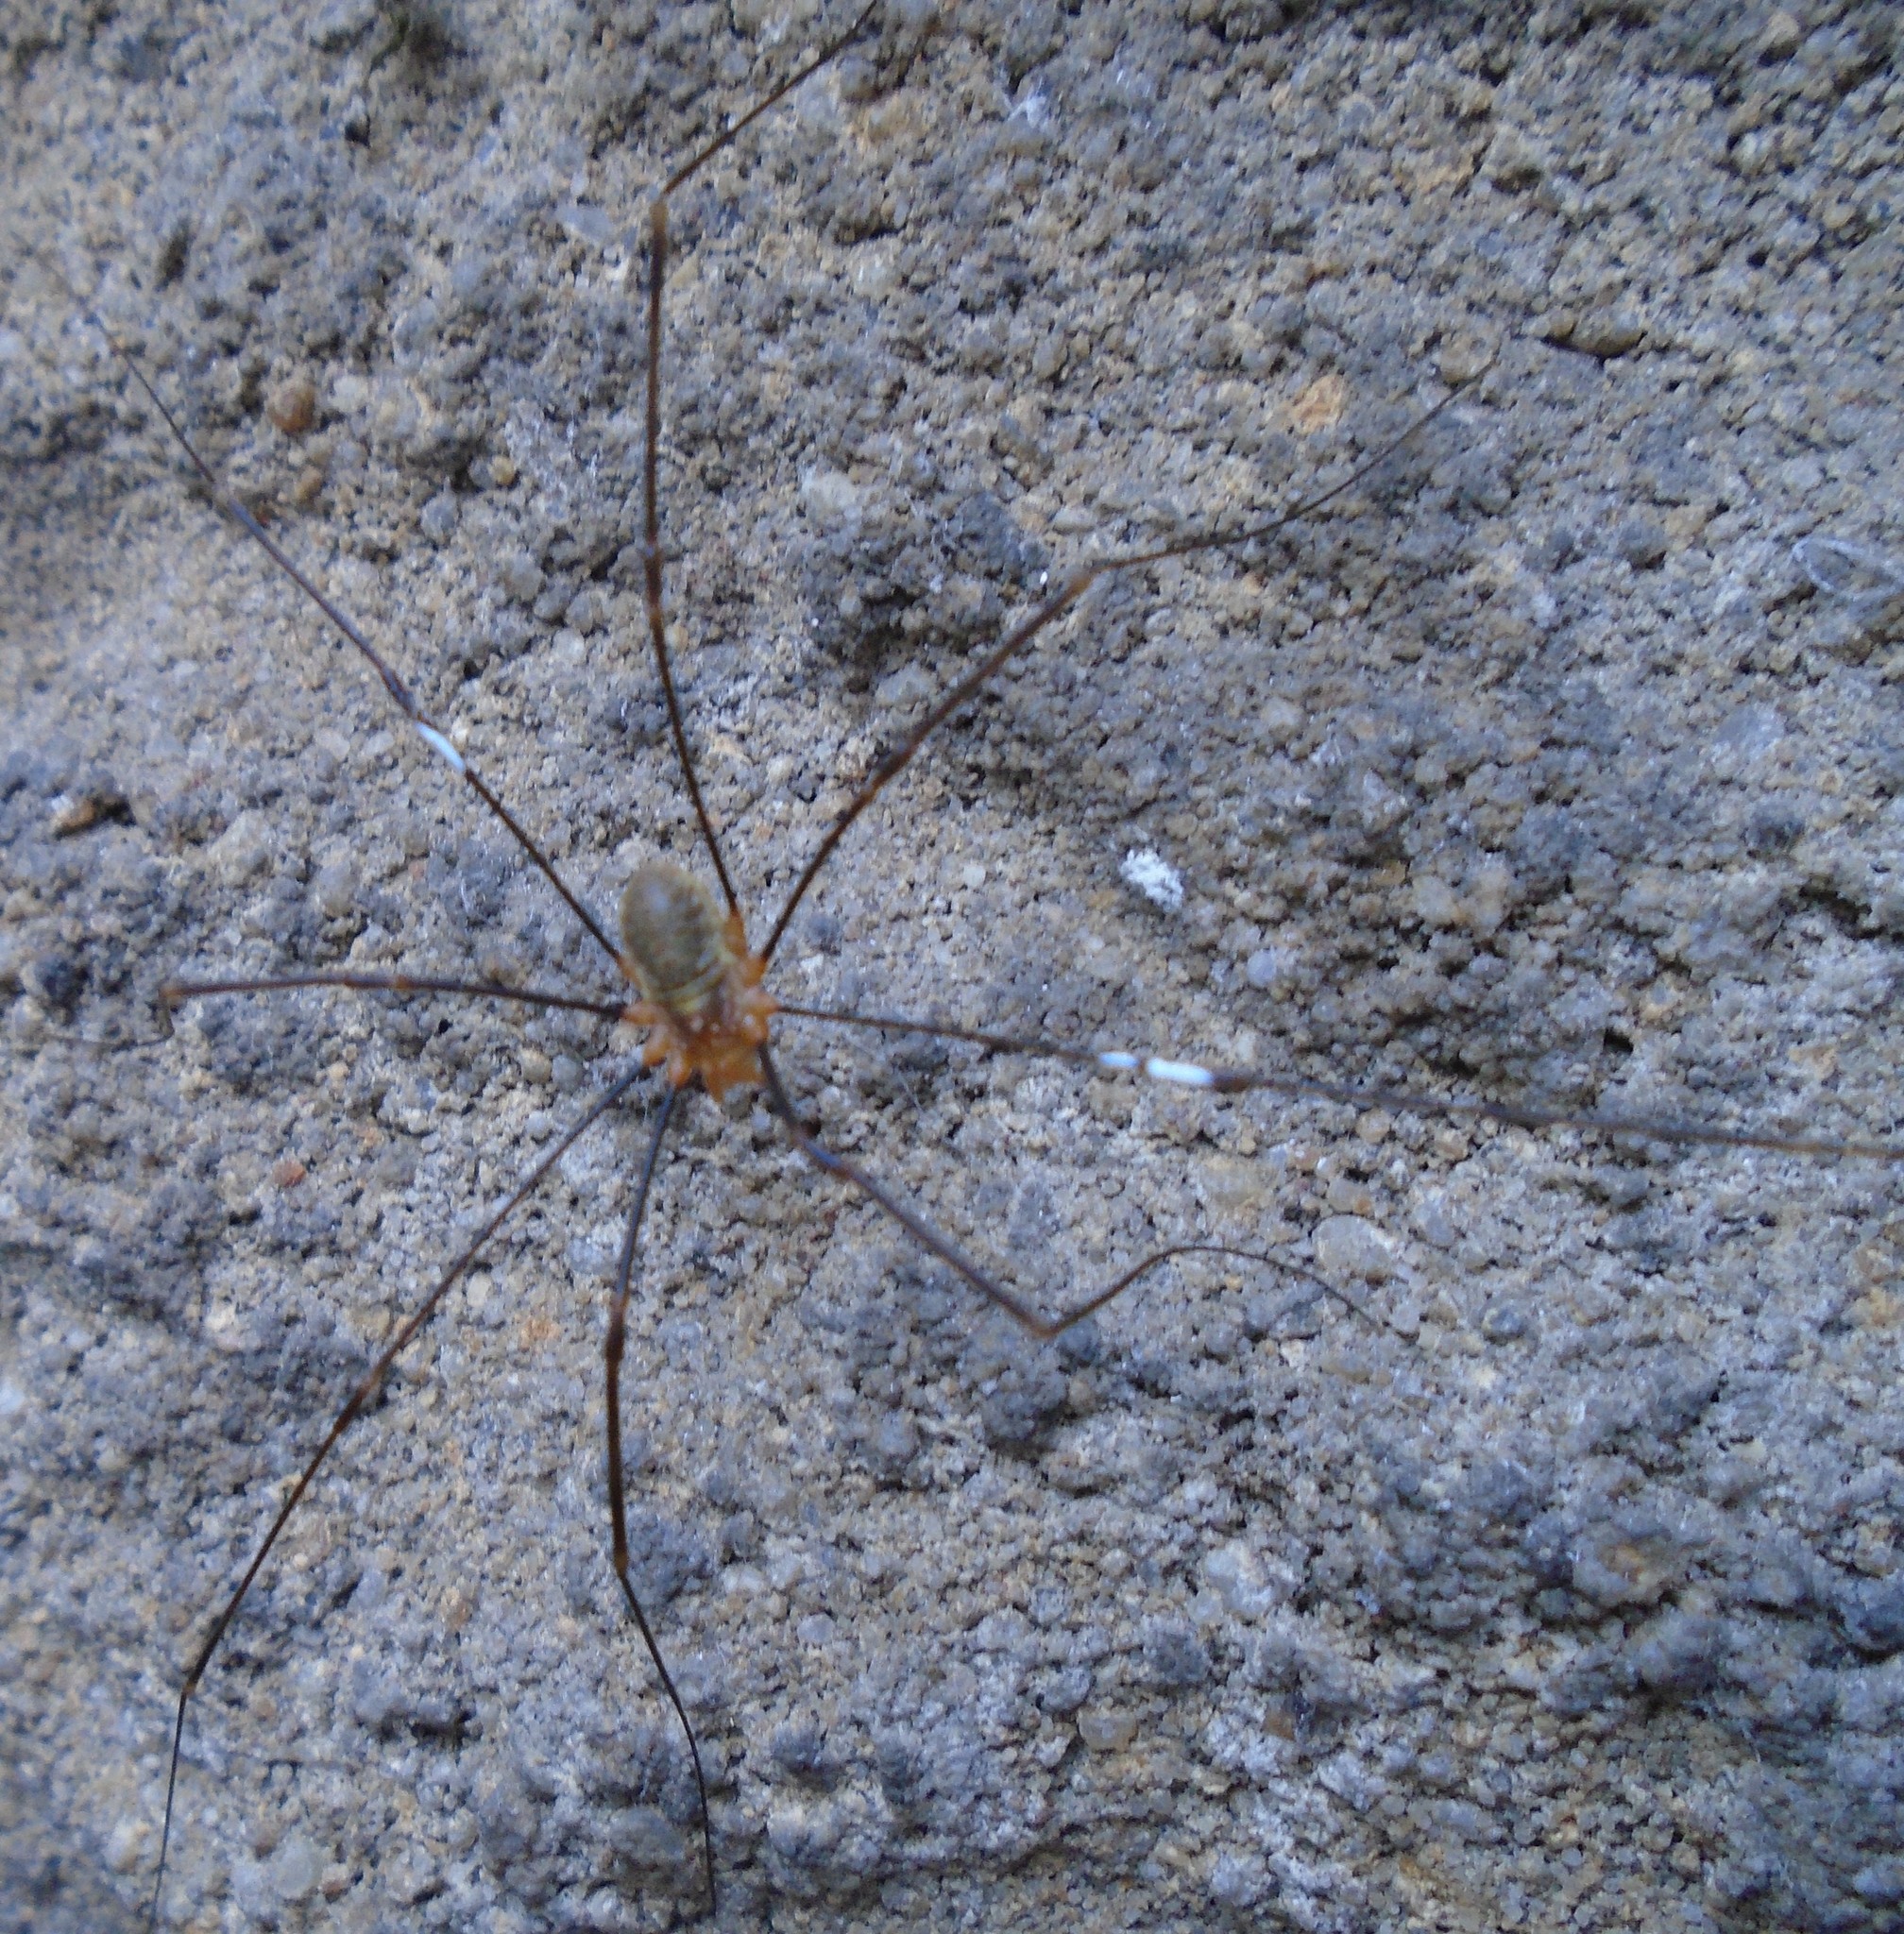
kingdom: Animalia
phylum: Arthropoda
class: Arachnida
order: Opiliones
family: Phalangiidae
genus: Opilio
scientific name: Opilio canestrinii
